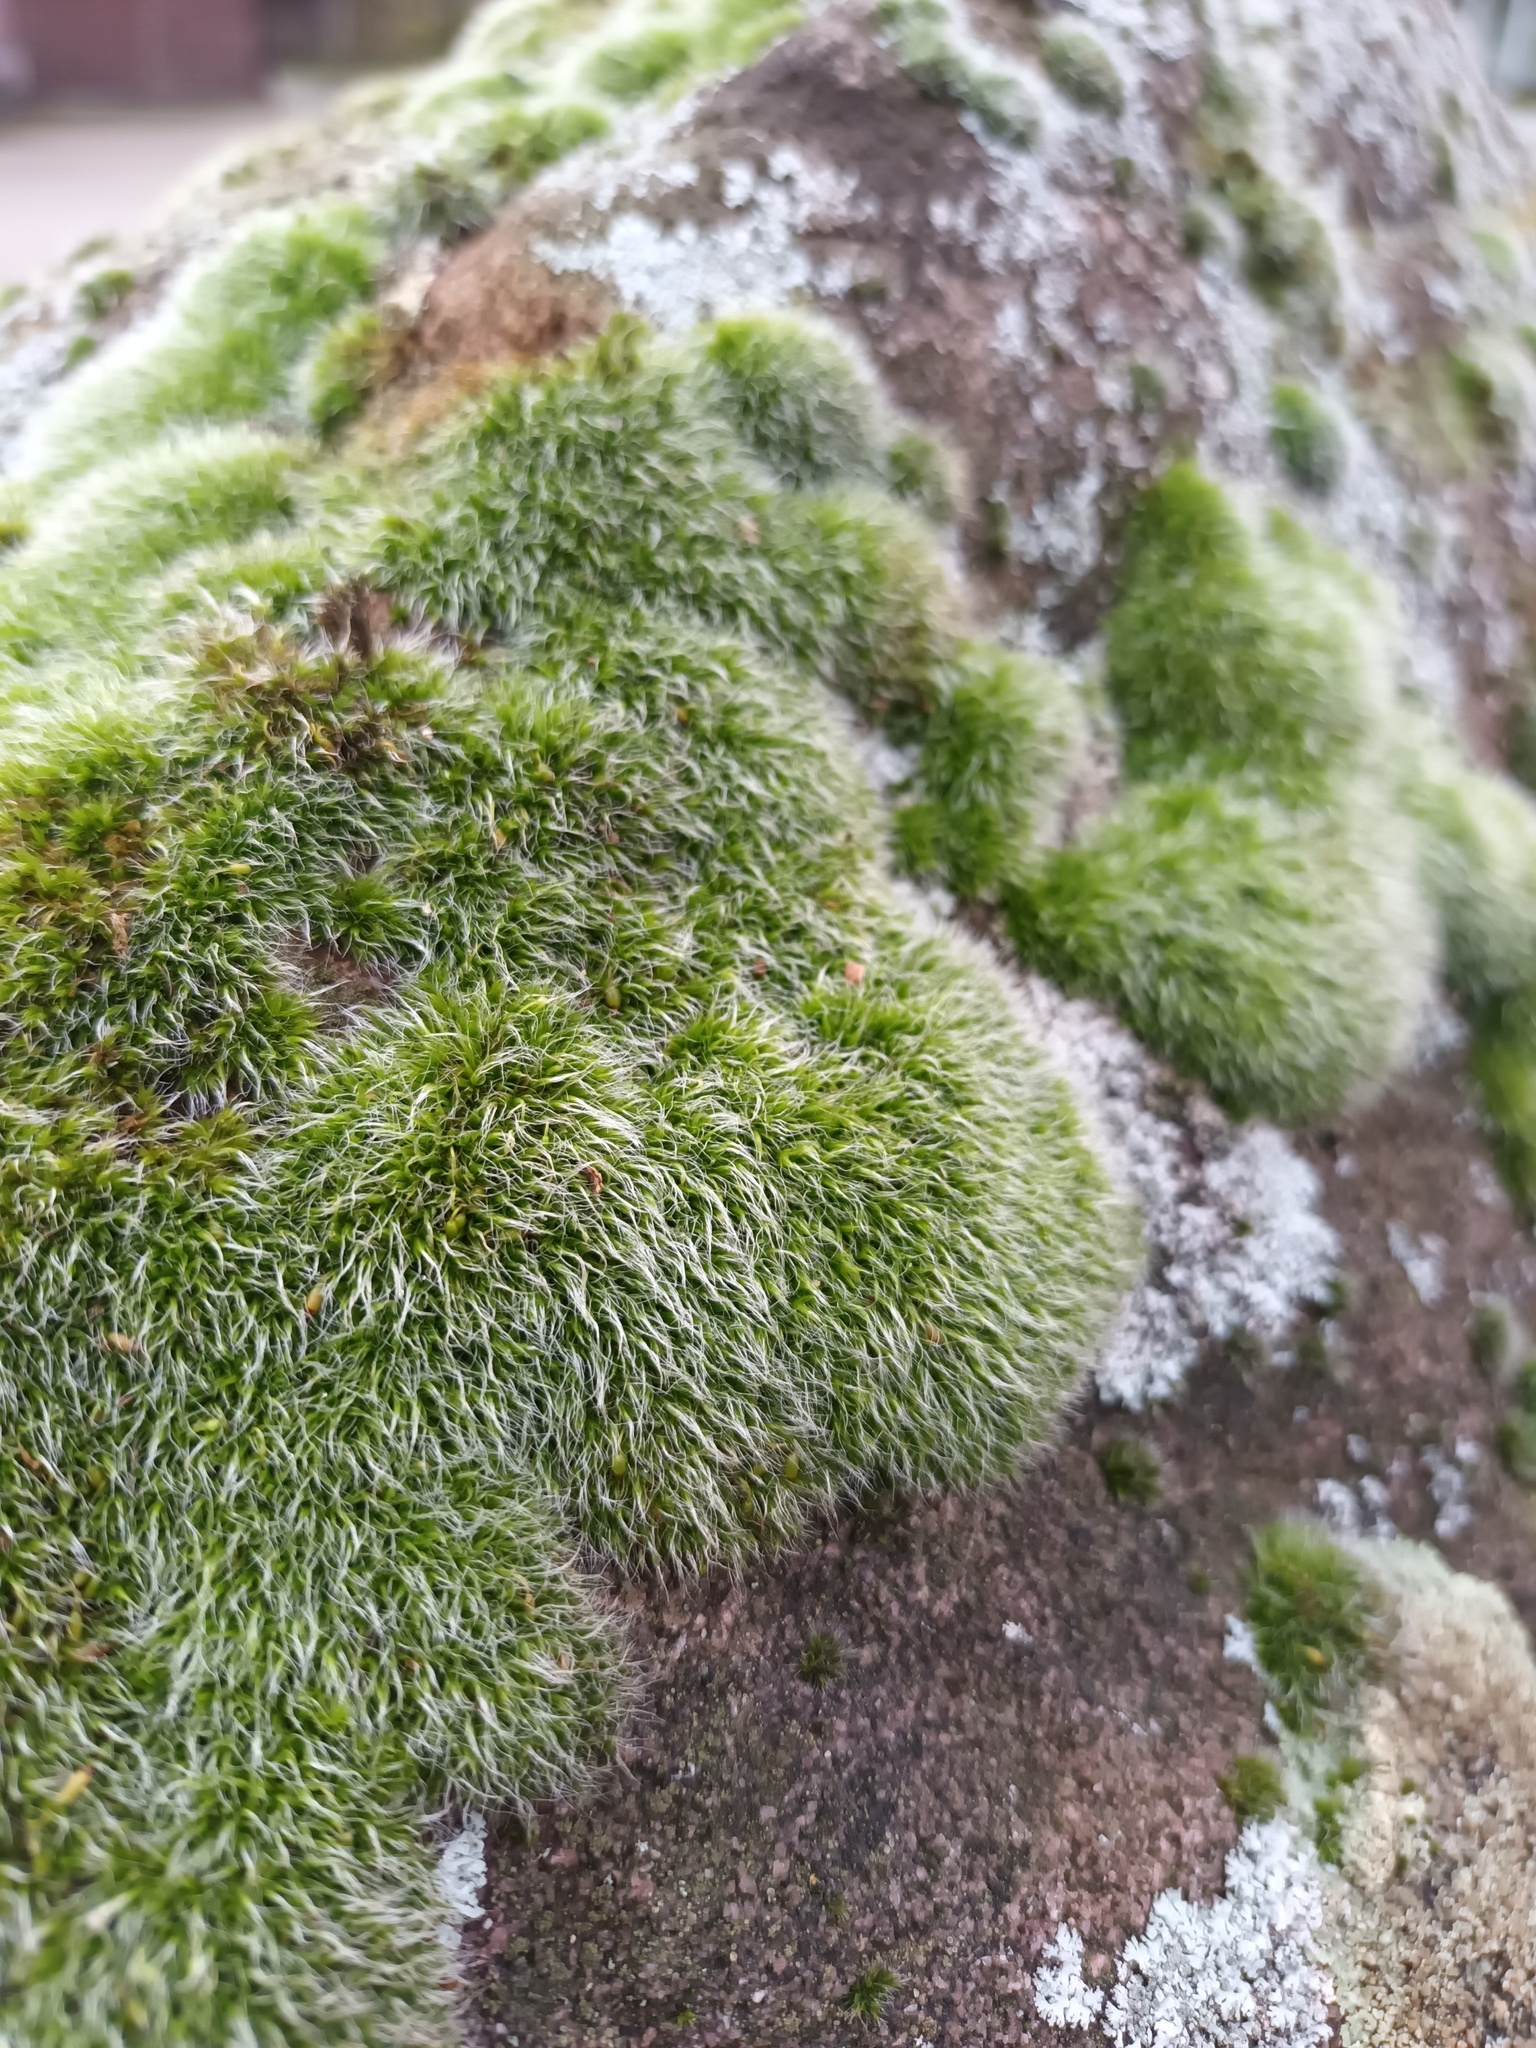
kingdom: Plantae
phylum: Bryophyta
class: Bryopsida
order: Grimmiales
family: Grimmiaceae
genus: Grimmia
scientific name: Grimmia pulvinata
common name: Grey-cushioned grimmia
